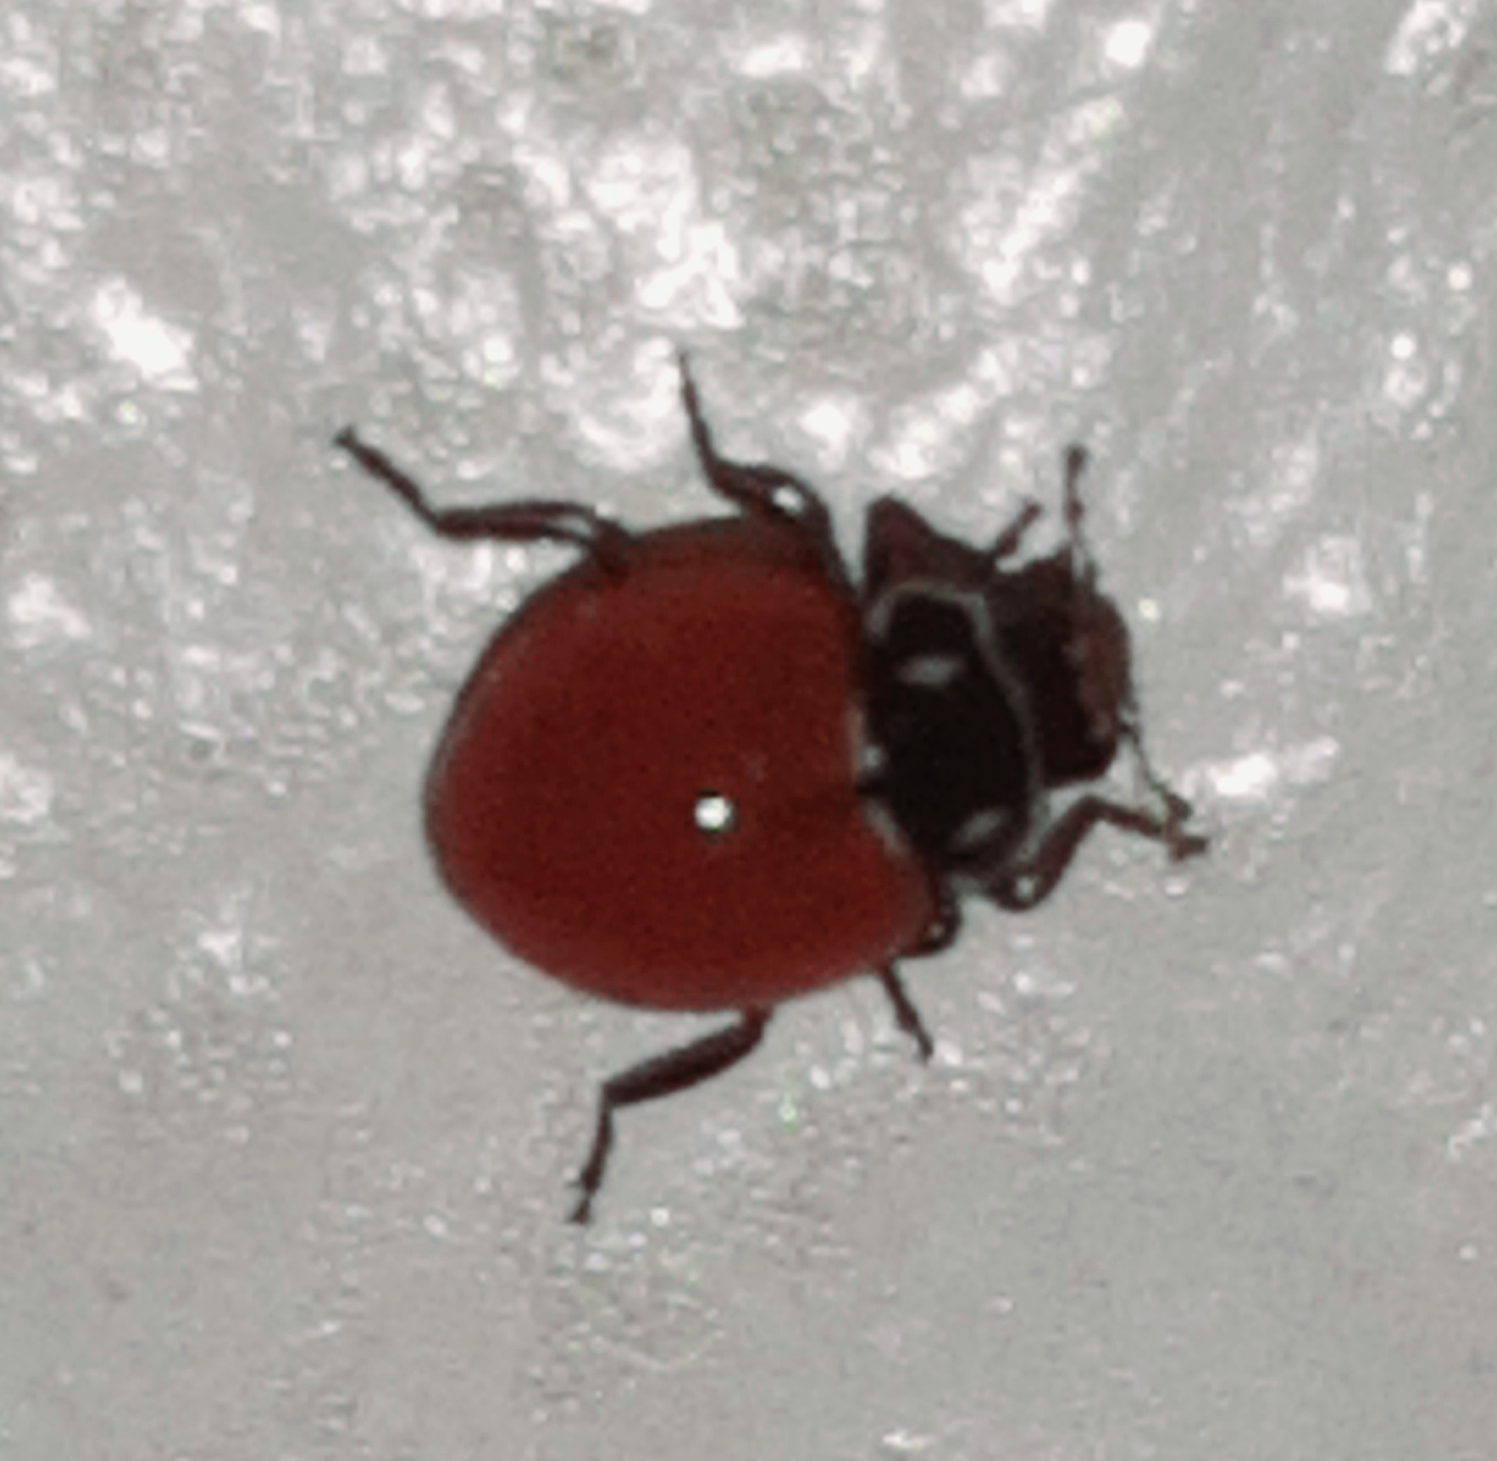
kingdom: Animalia
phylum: Arthropoda
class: Insecta
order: Coleoptera
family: Coccinellidae
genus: Cycloneda
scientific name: Cycloneda emarginata
